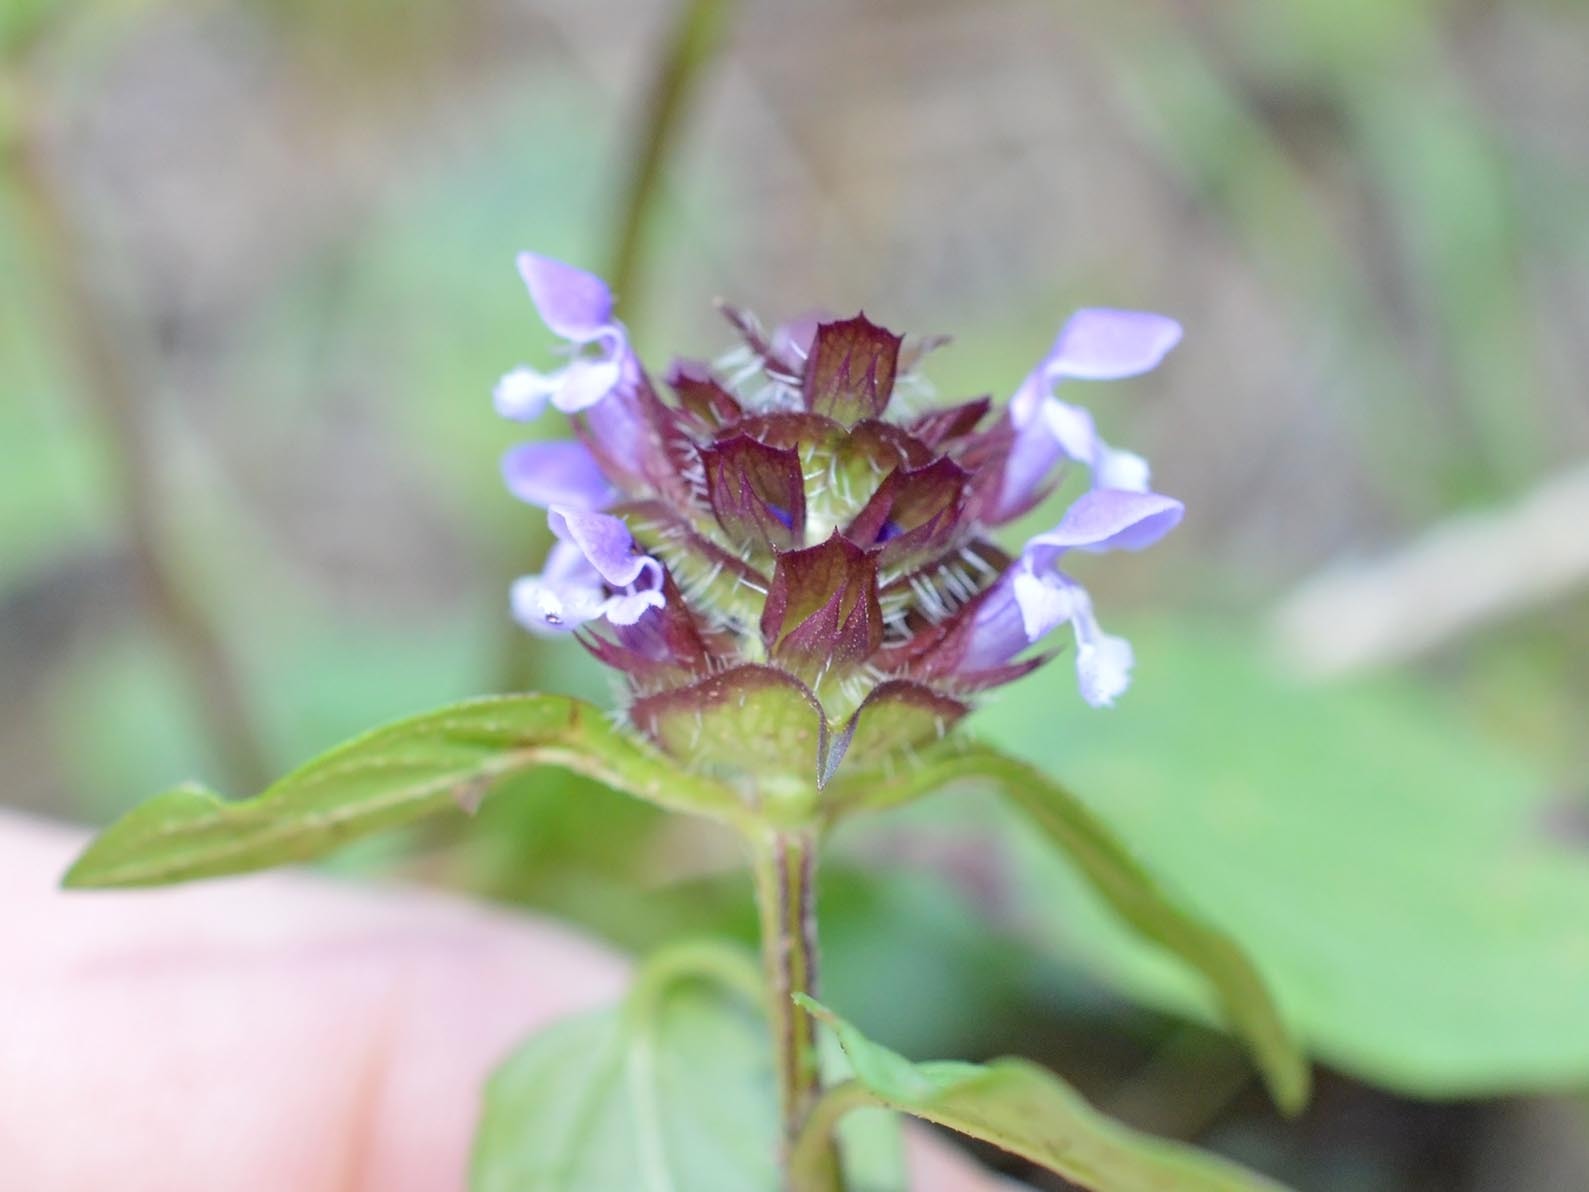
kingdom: Plantae
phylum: Tracheophyta
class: Magnoliopsida
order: Lamiales
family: Lamiaceae
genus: Prunella
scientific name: Prunella vulgaris
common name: Heal-all
